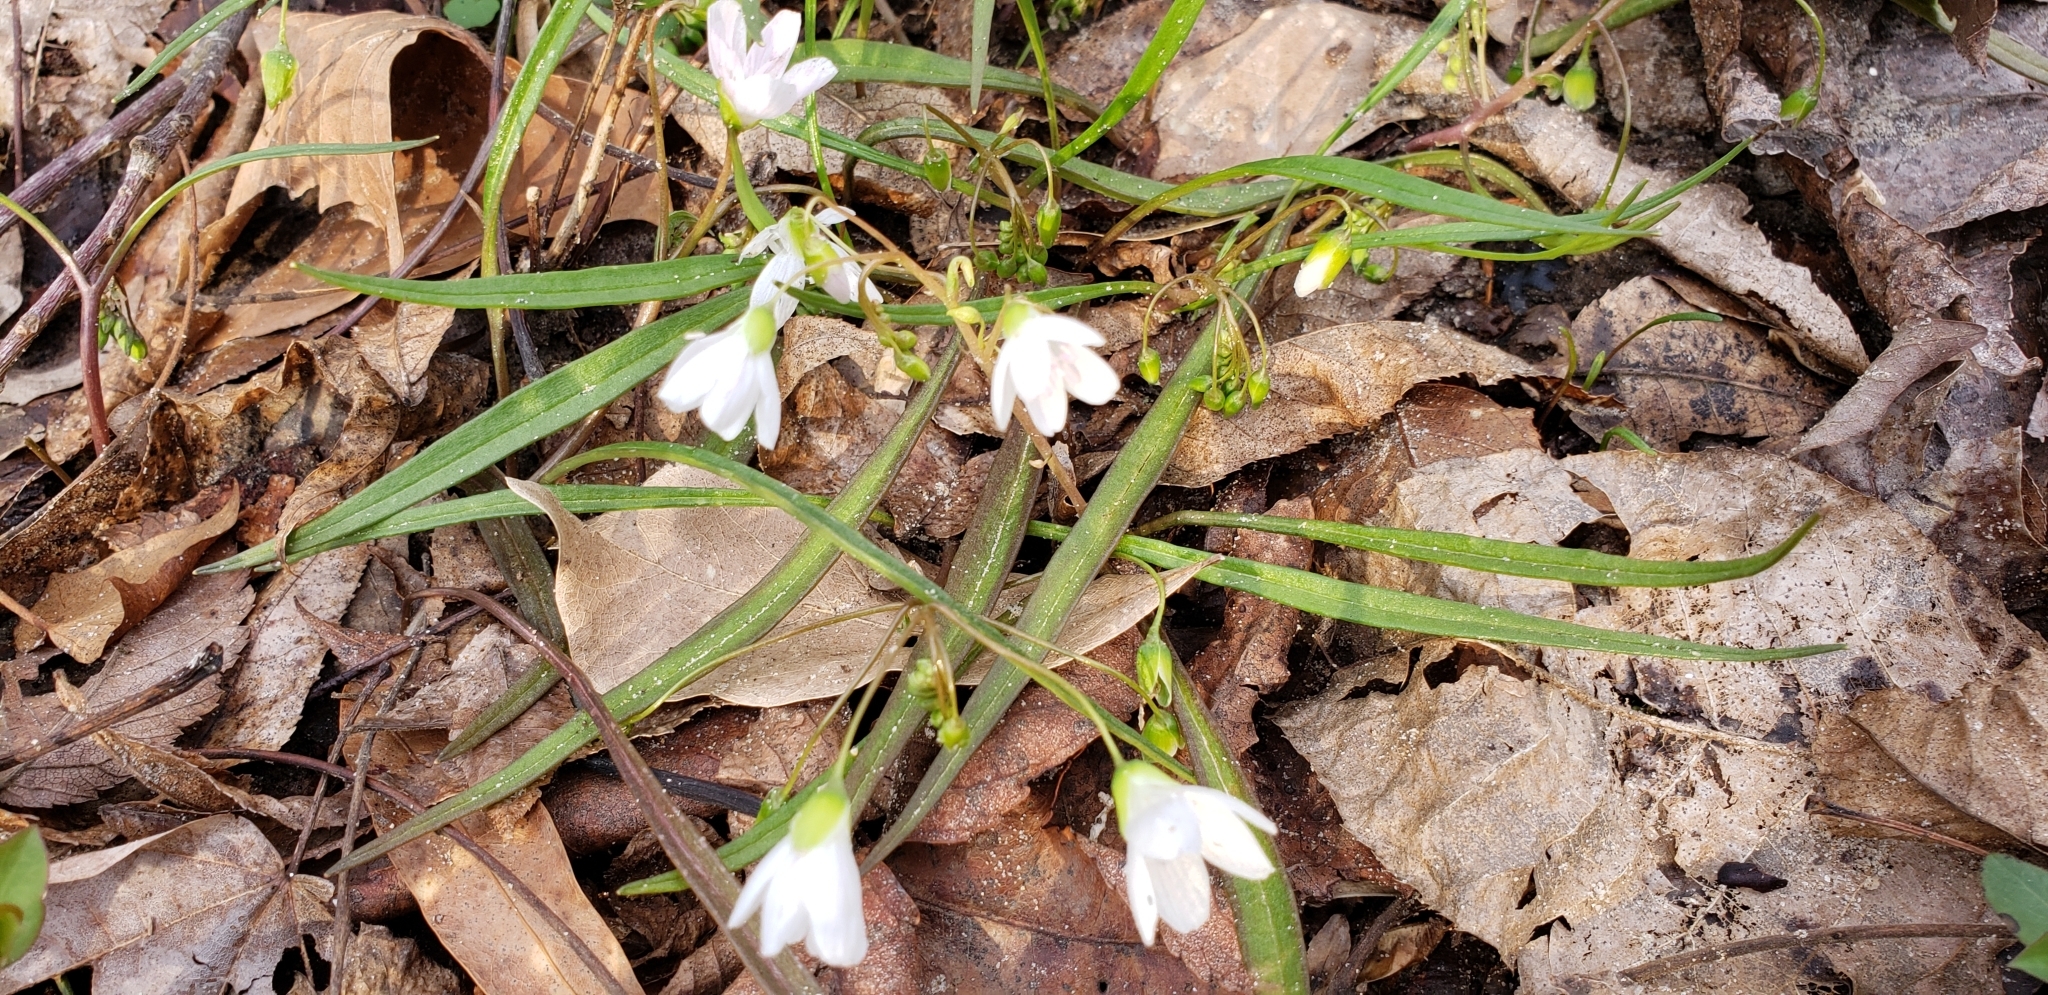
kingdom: Plantae
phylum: Tracheophyta
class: Magnoliopsida
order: Caryophyllales
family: Montiaceae
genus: Claytonia
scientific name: Claytonia virginica
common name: Virginia springbeauty
